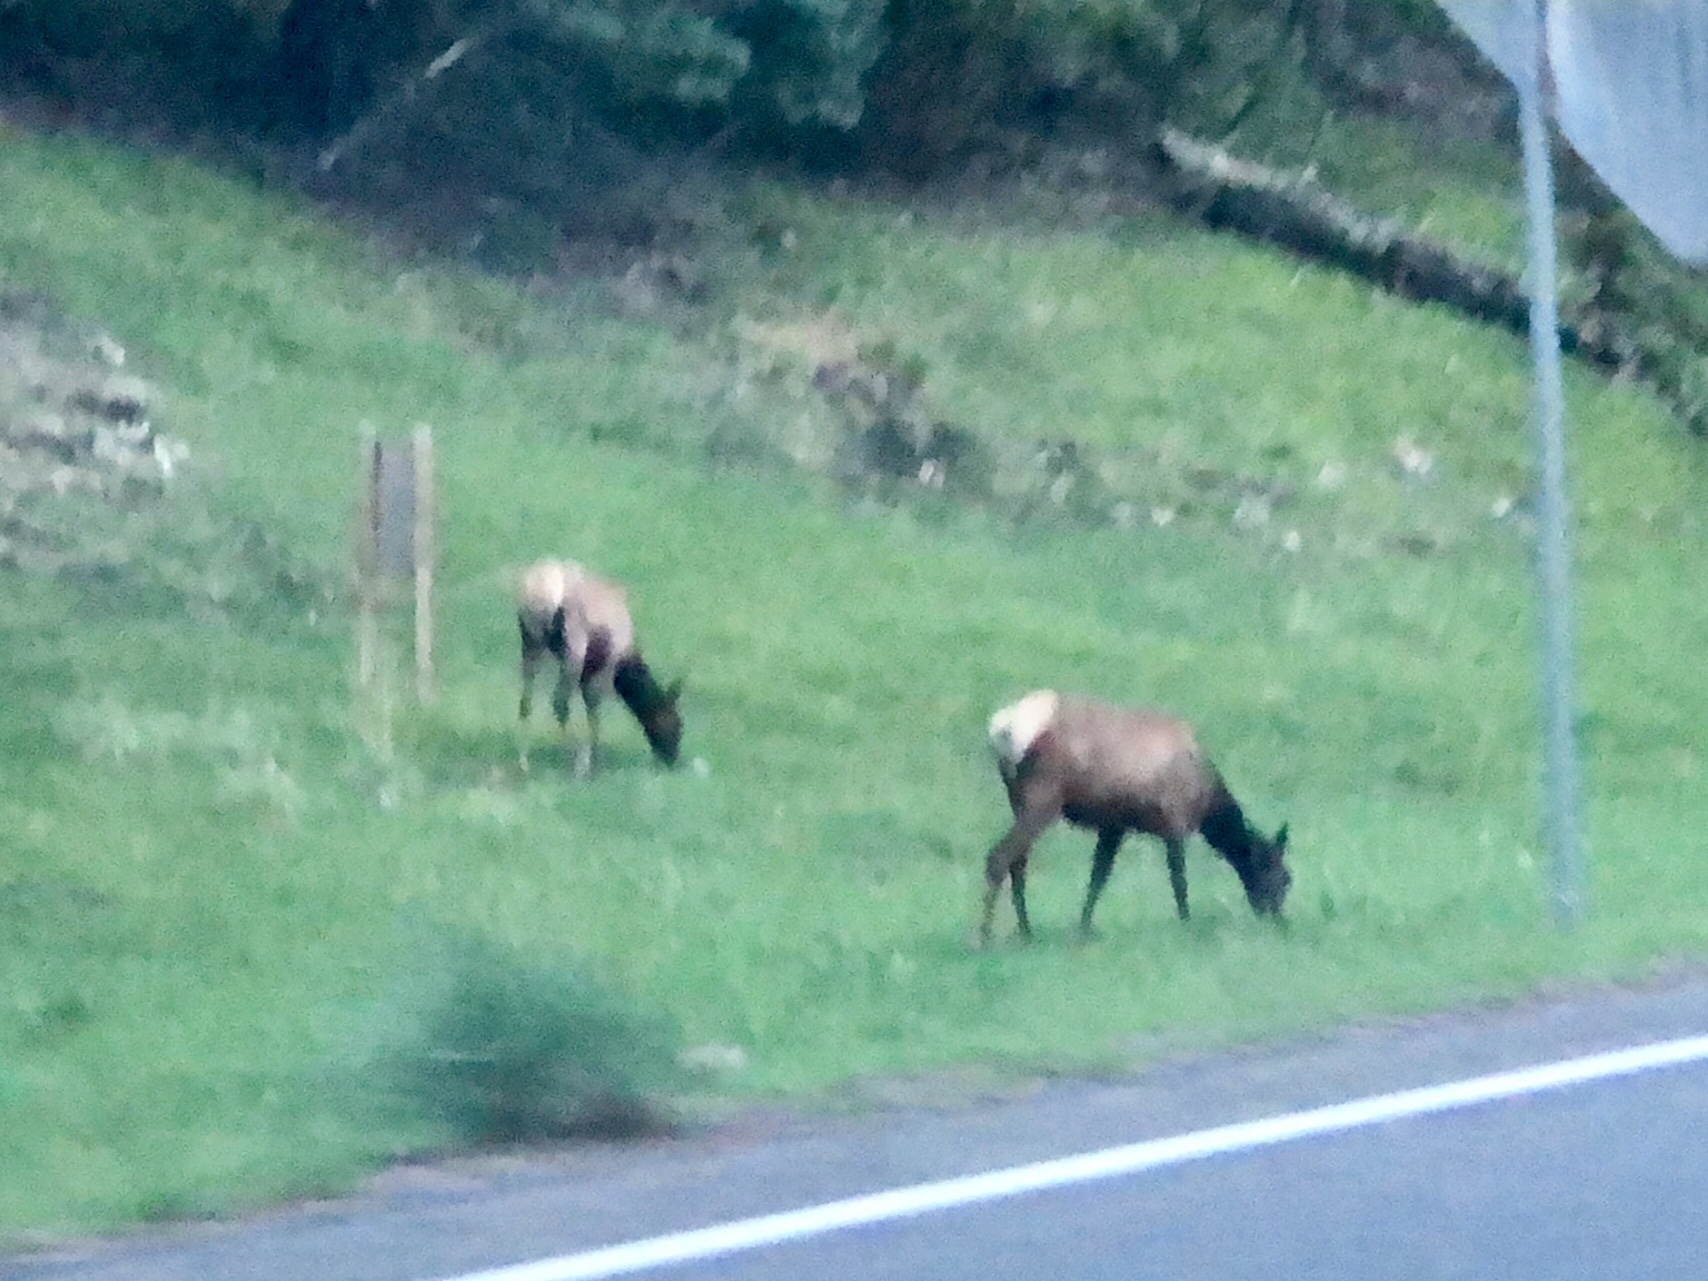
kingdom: Animalia
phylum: Chordata
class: Mammalia
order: Artiodactyla
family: Cervidae
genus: Cervus
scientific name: Cervus elaphus
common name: Red deer
